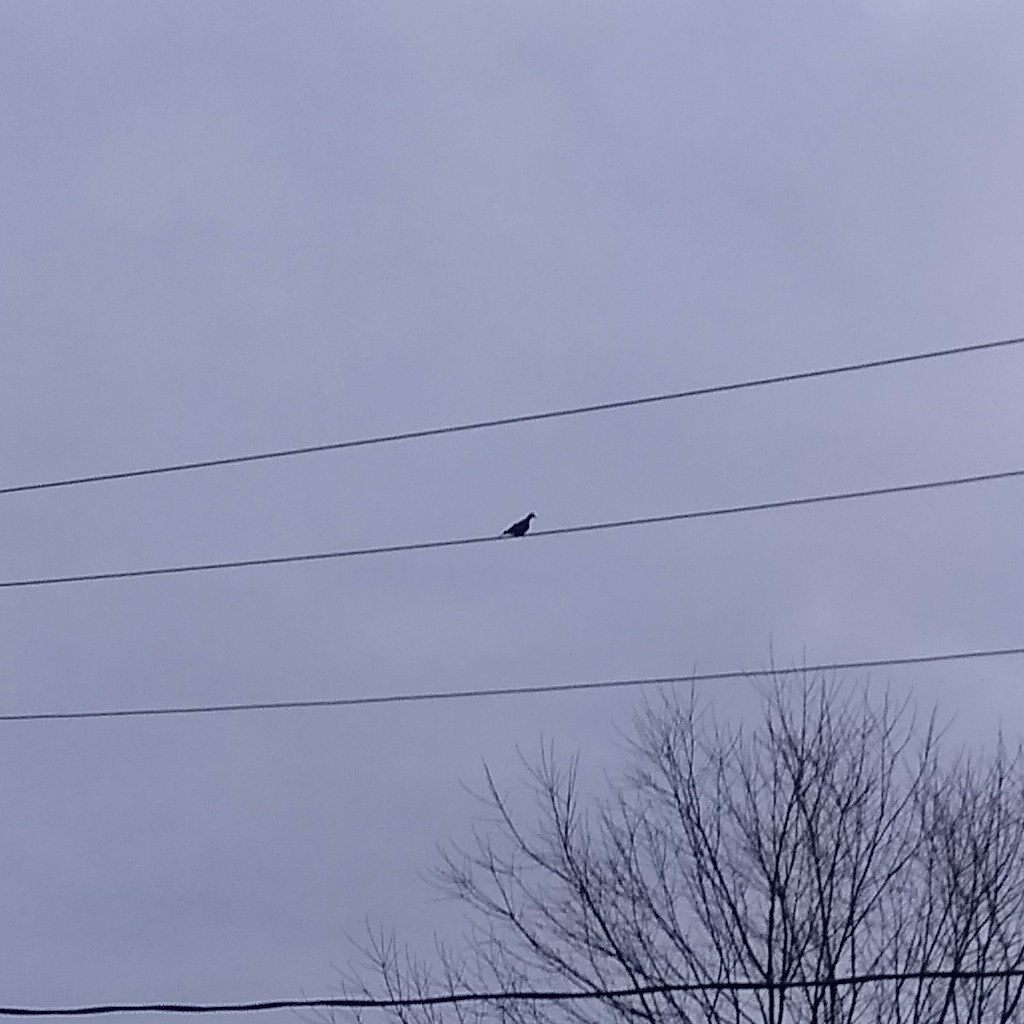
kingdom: Animalia
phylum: Chordata
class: Aves
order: Columbiformes
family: Columbidae
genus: Zenaida
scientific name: Zenaida macroura
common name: Mourning dove
